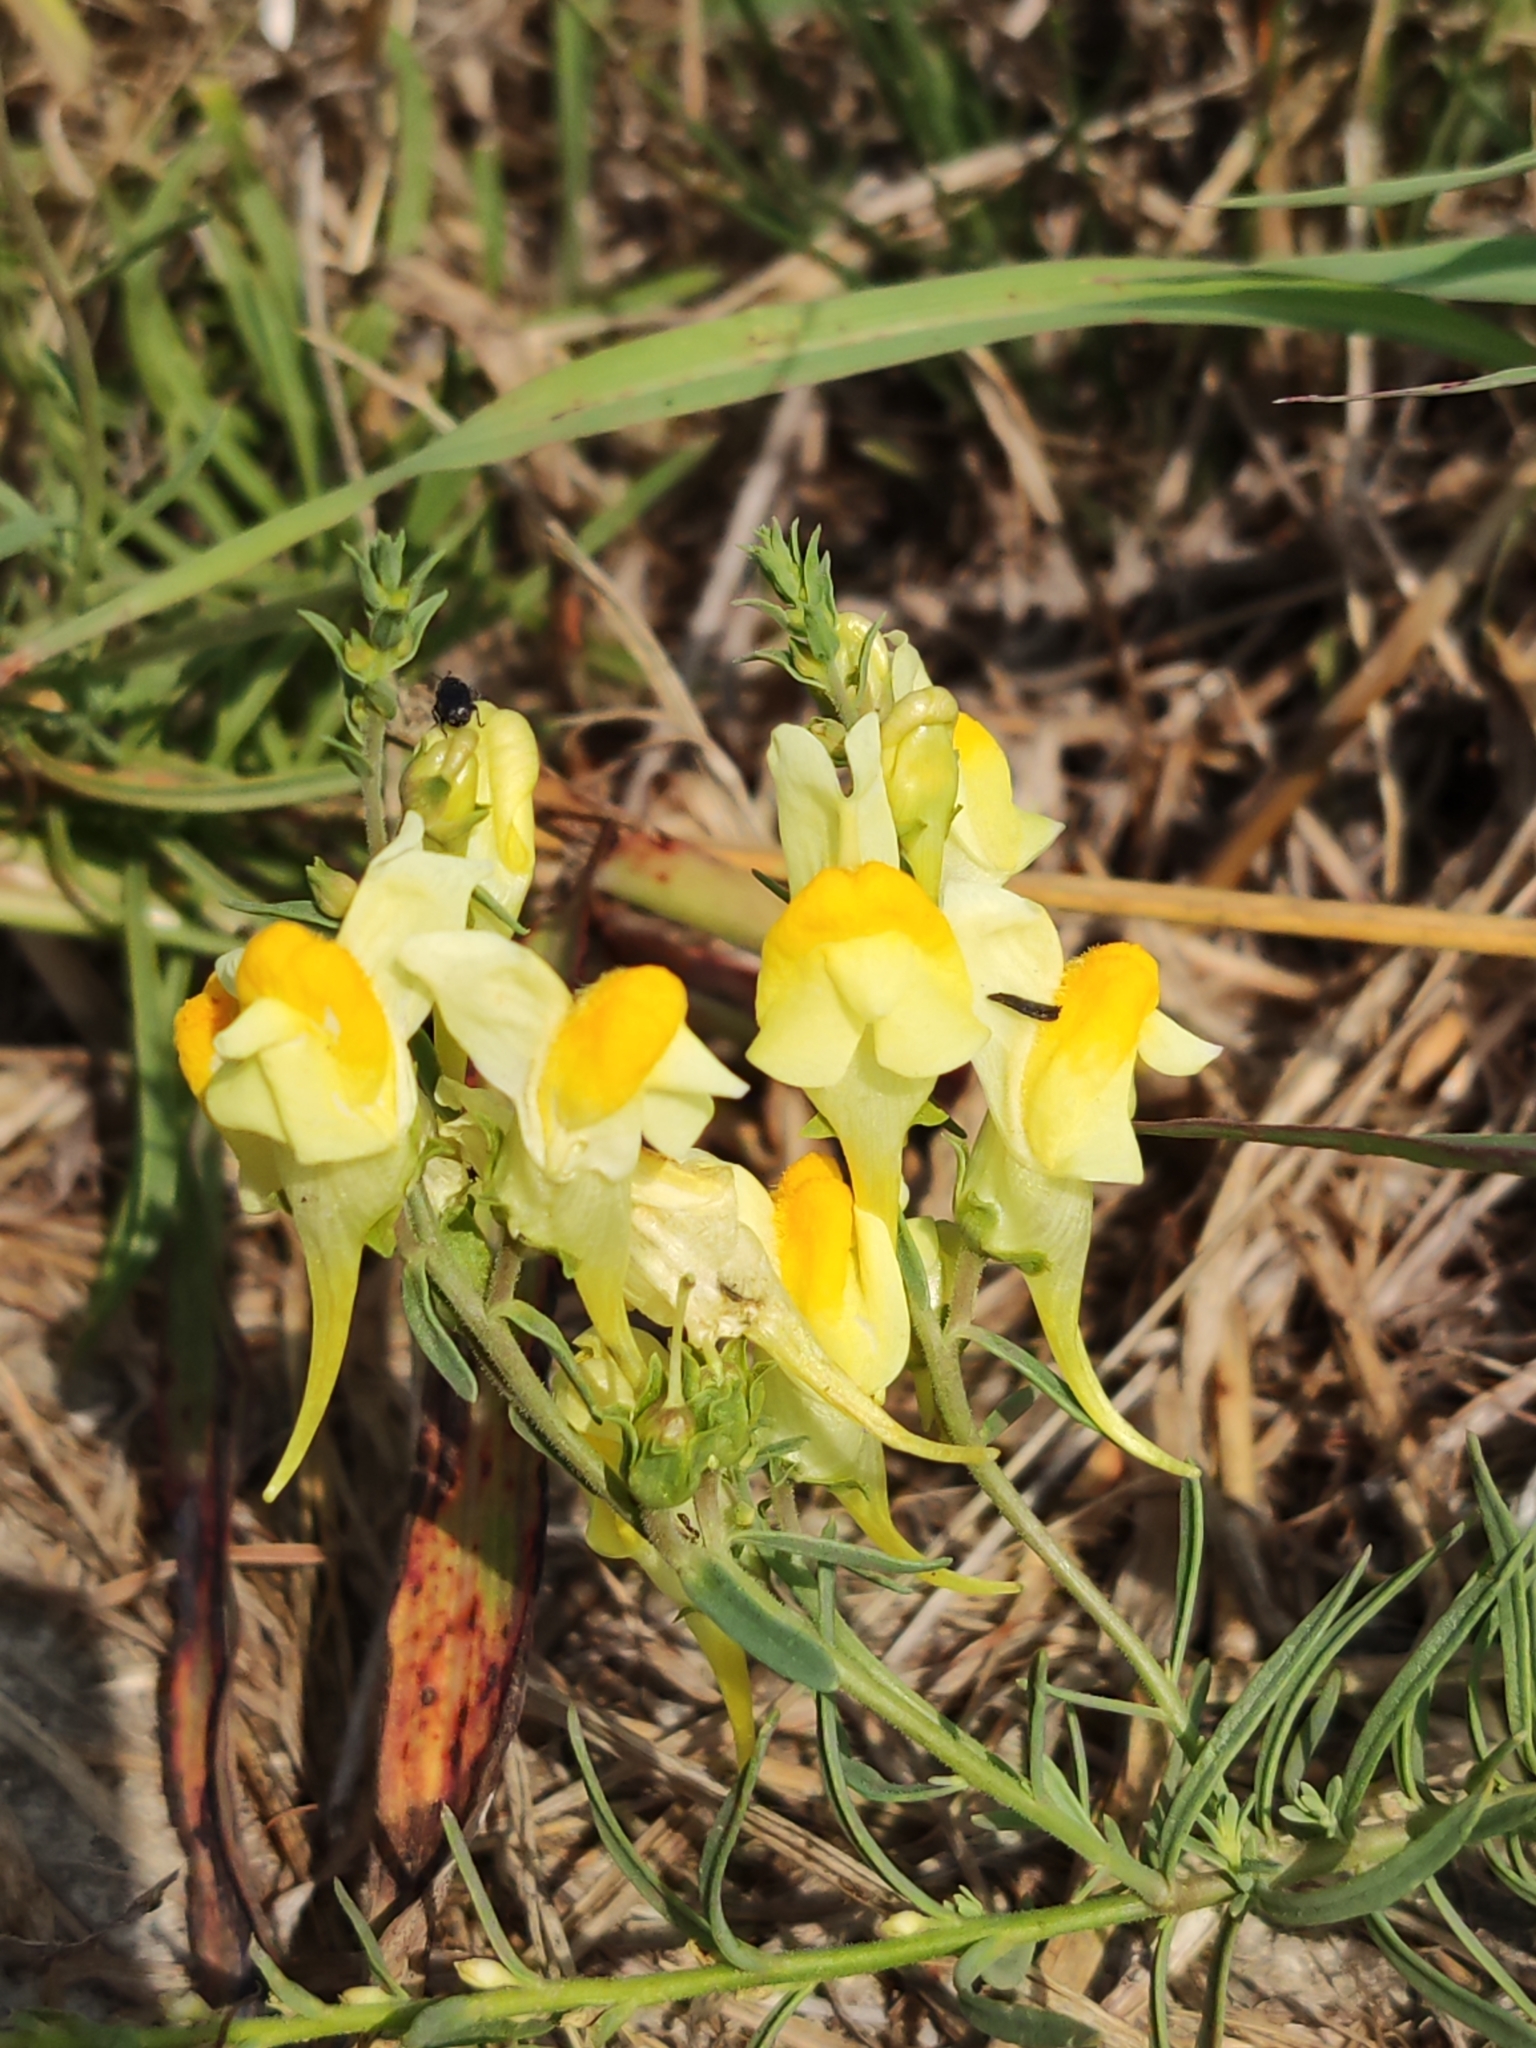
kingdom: Plantae
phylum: Tracheophyta
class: Magnoliopsida
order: Lamiales
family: Plantaginaceae
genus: Linaria
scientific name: Linaria vulgaris
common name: Butter and eggs
